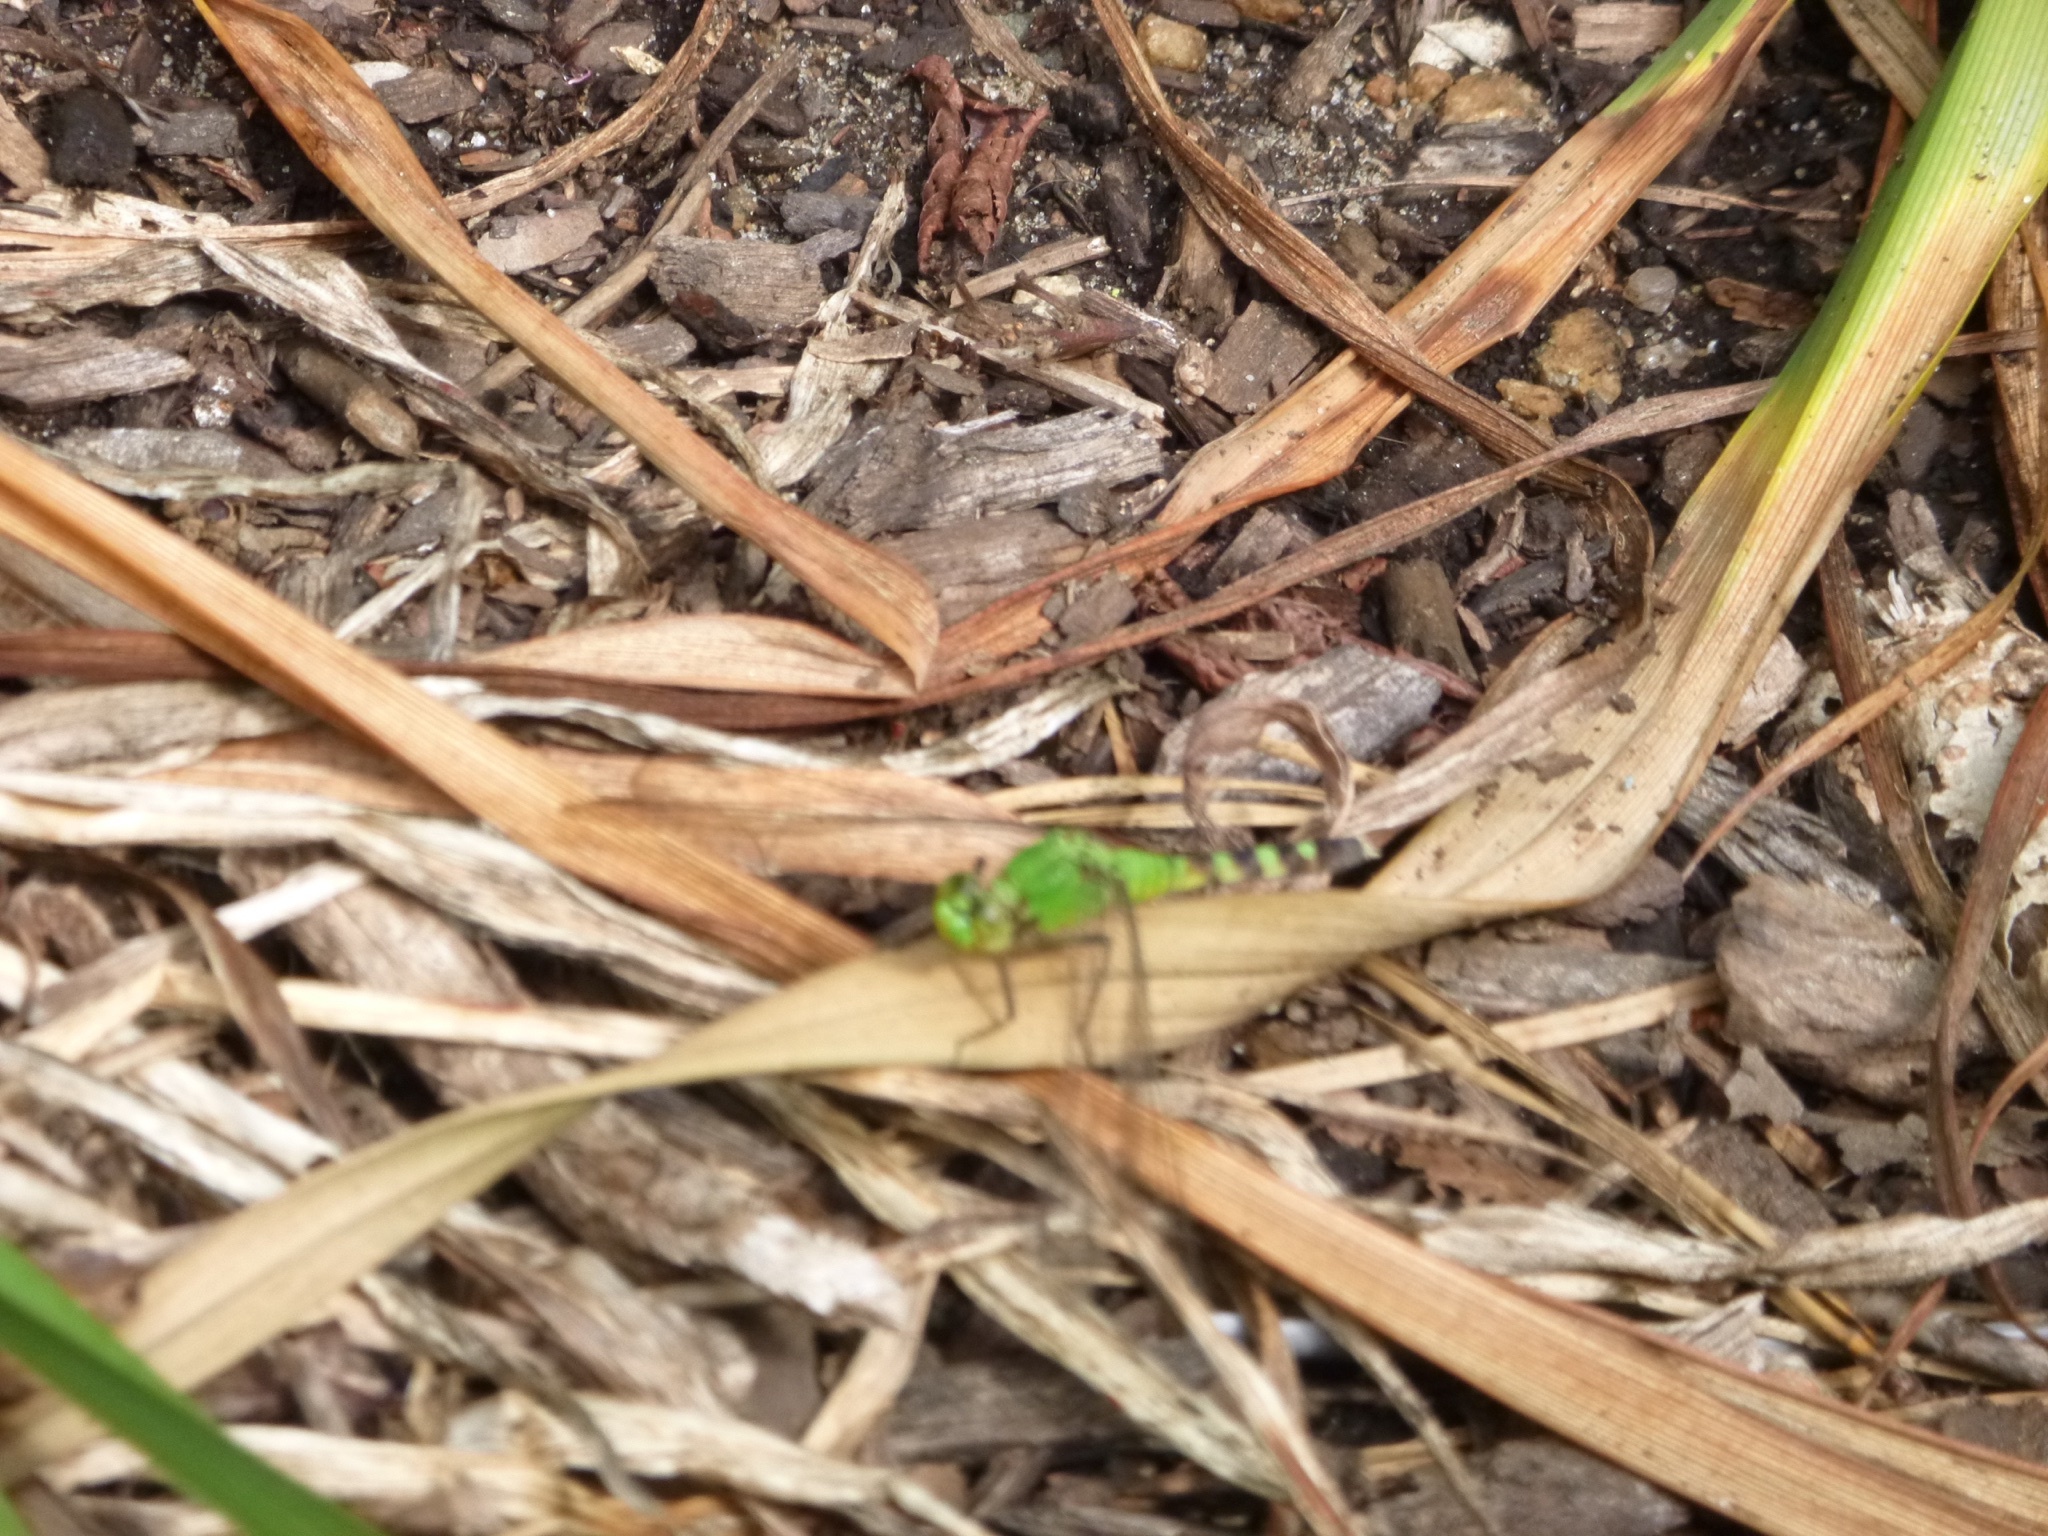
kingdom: Animalia
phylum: Arthropoda
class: Insecta
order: Odonata
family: Libellulidae
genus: Erythemis
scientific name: Erythemis simplicicollis
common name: Eastern pondhawk
